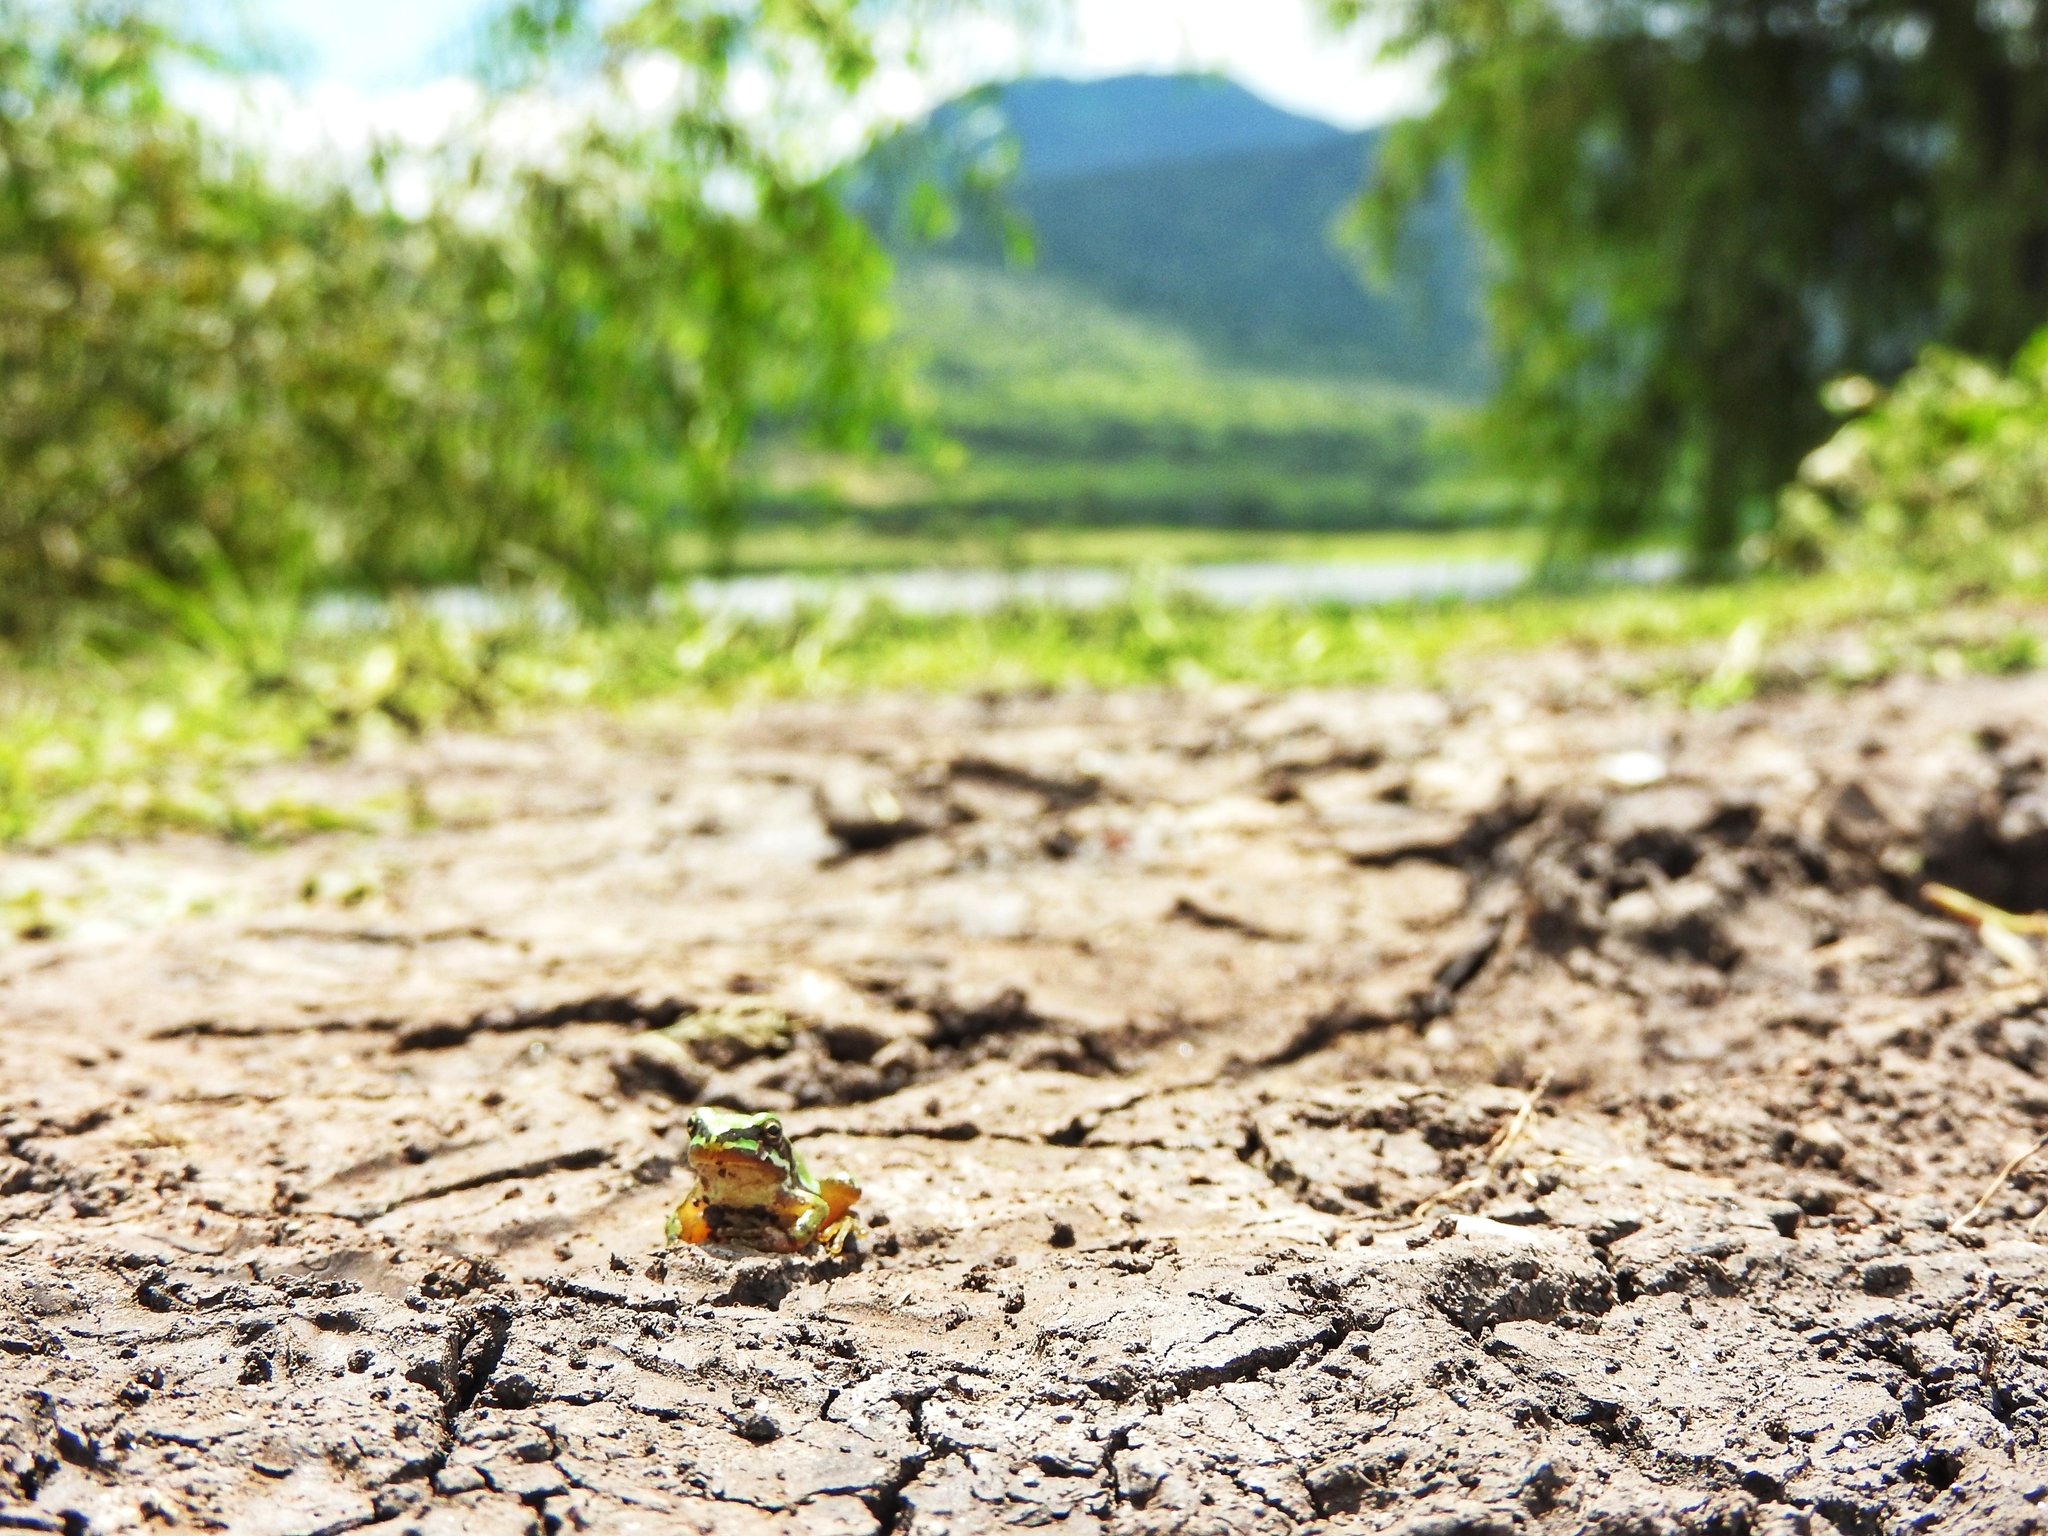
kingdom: Animalia
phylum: Chordata
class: Amphibia
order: Anura
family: Hylidae
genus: Dryophytes
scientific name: Dryophytes eximius
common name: Mountain treefrog
